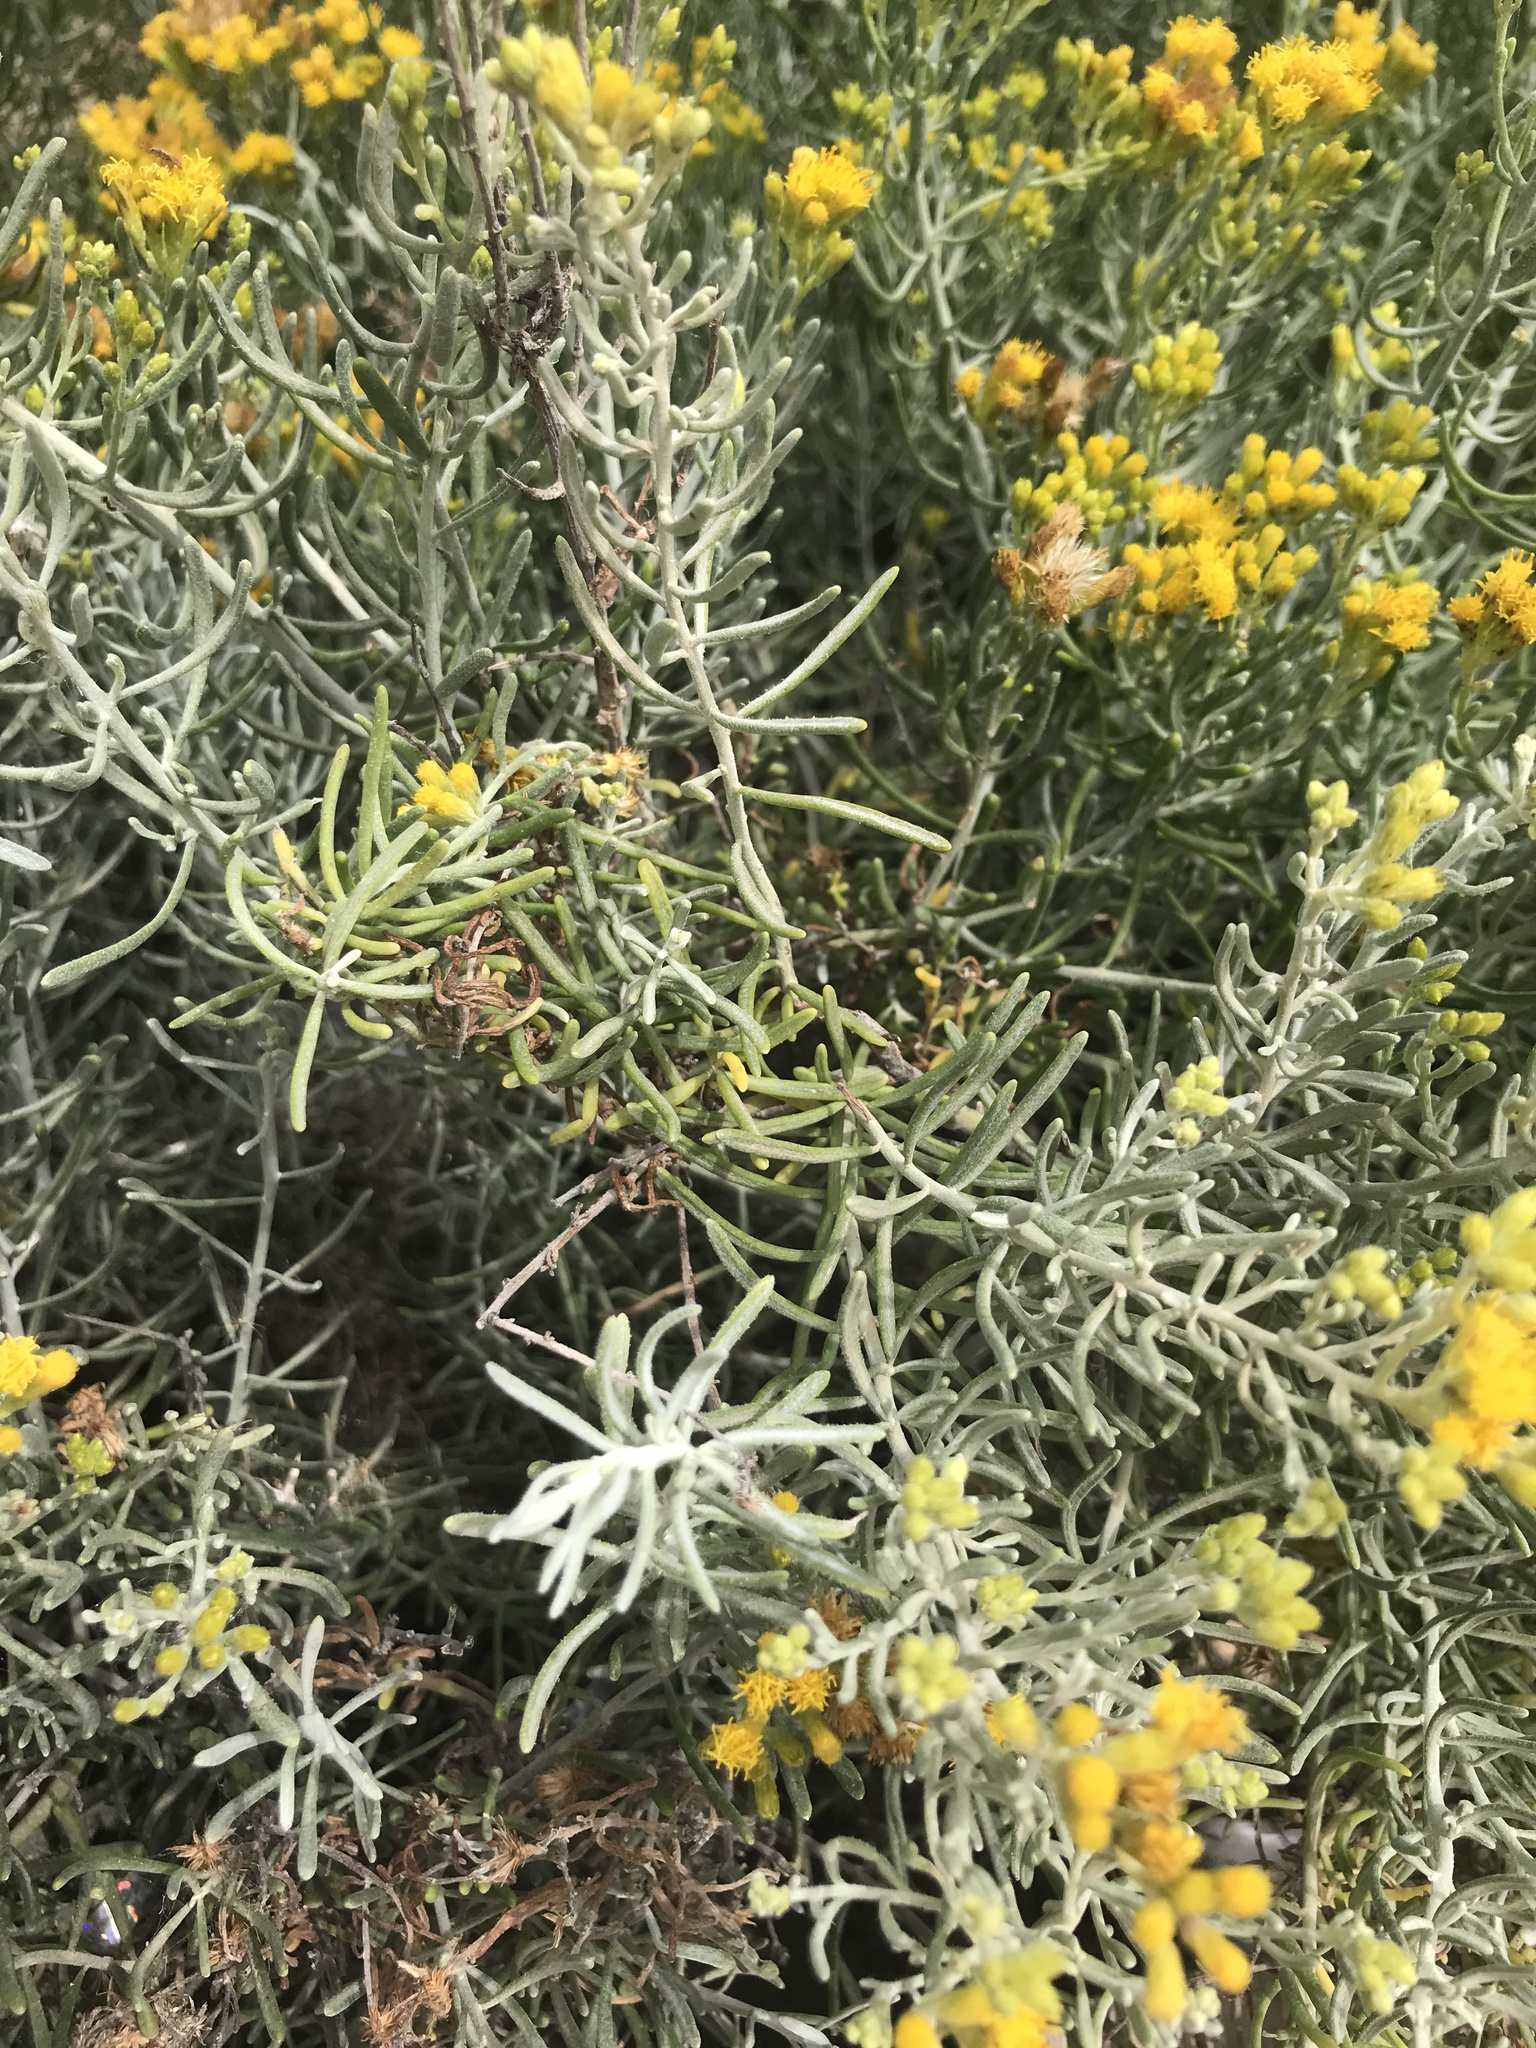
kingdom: Plantae
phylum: Tracheophyta
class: Magnoliopsida
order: Asterales
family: Asteraceae
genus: Schizogyne
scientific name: Schizogyne sericea
